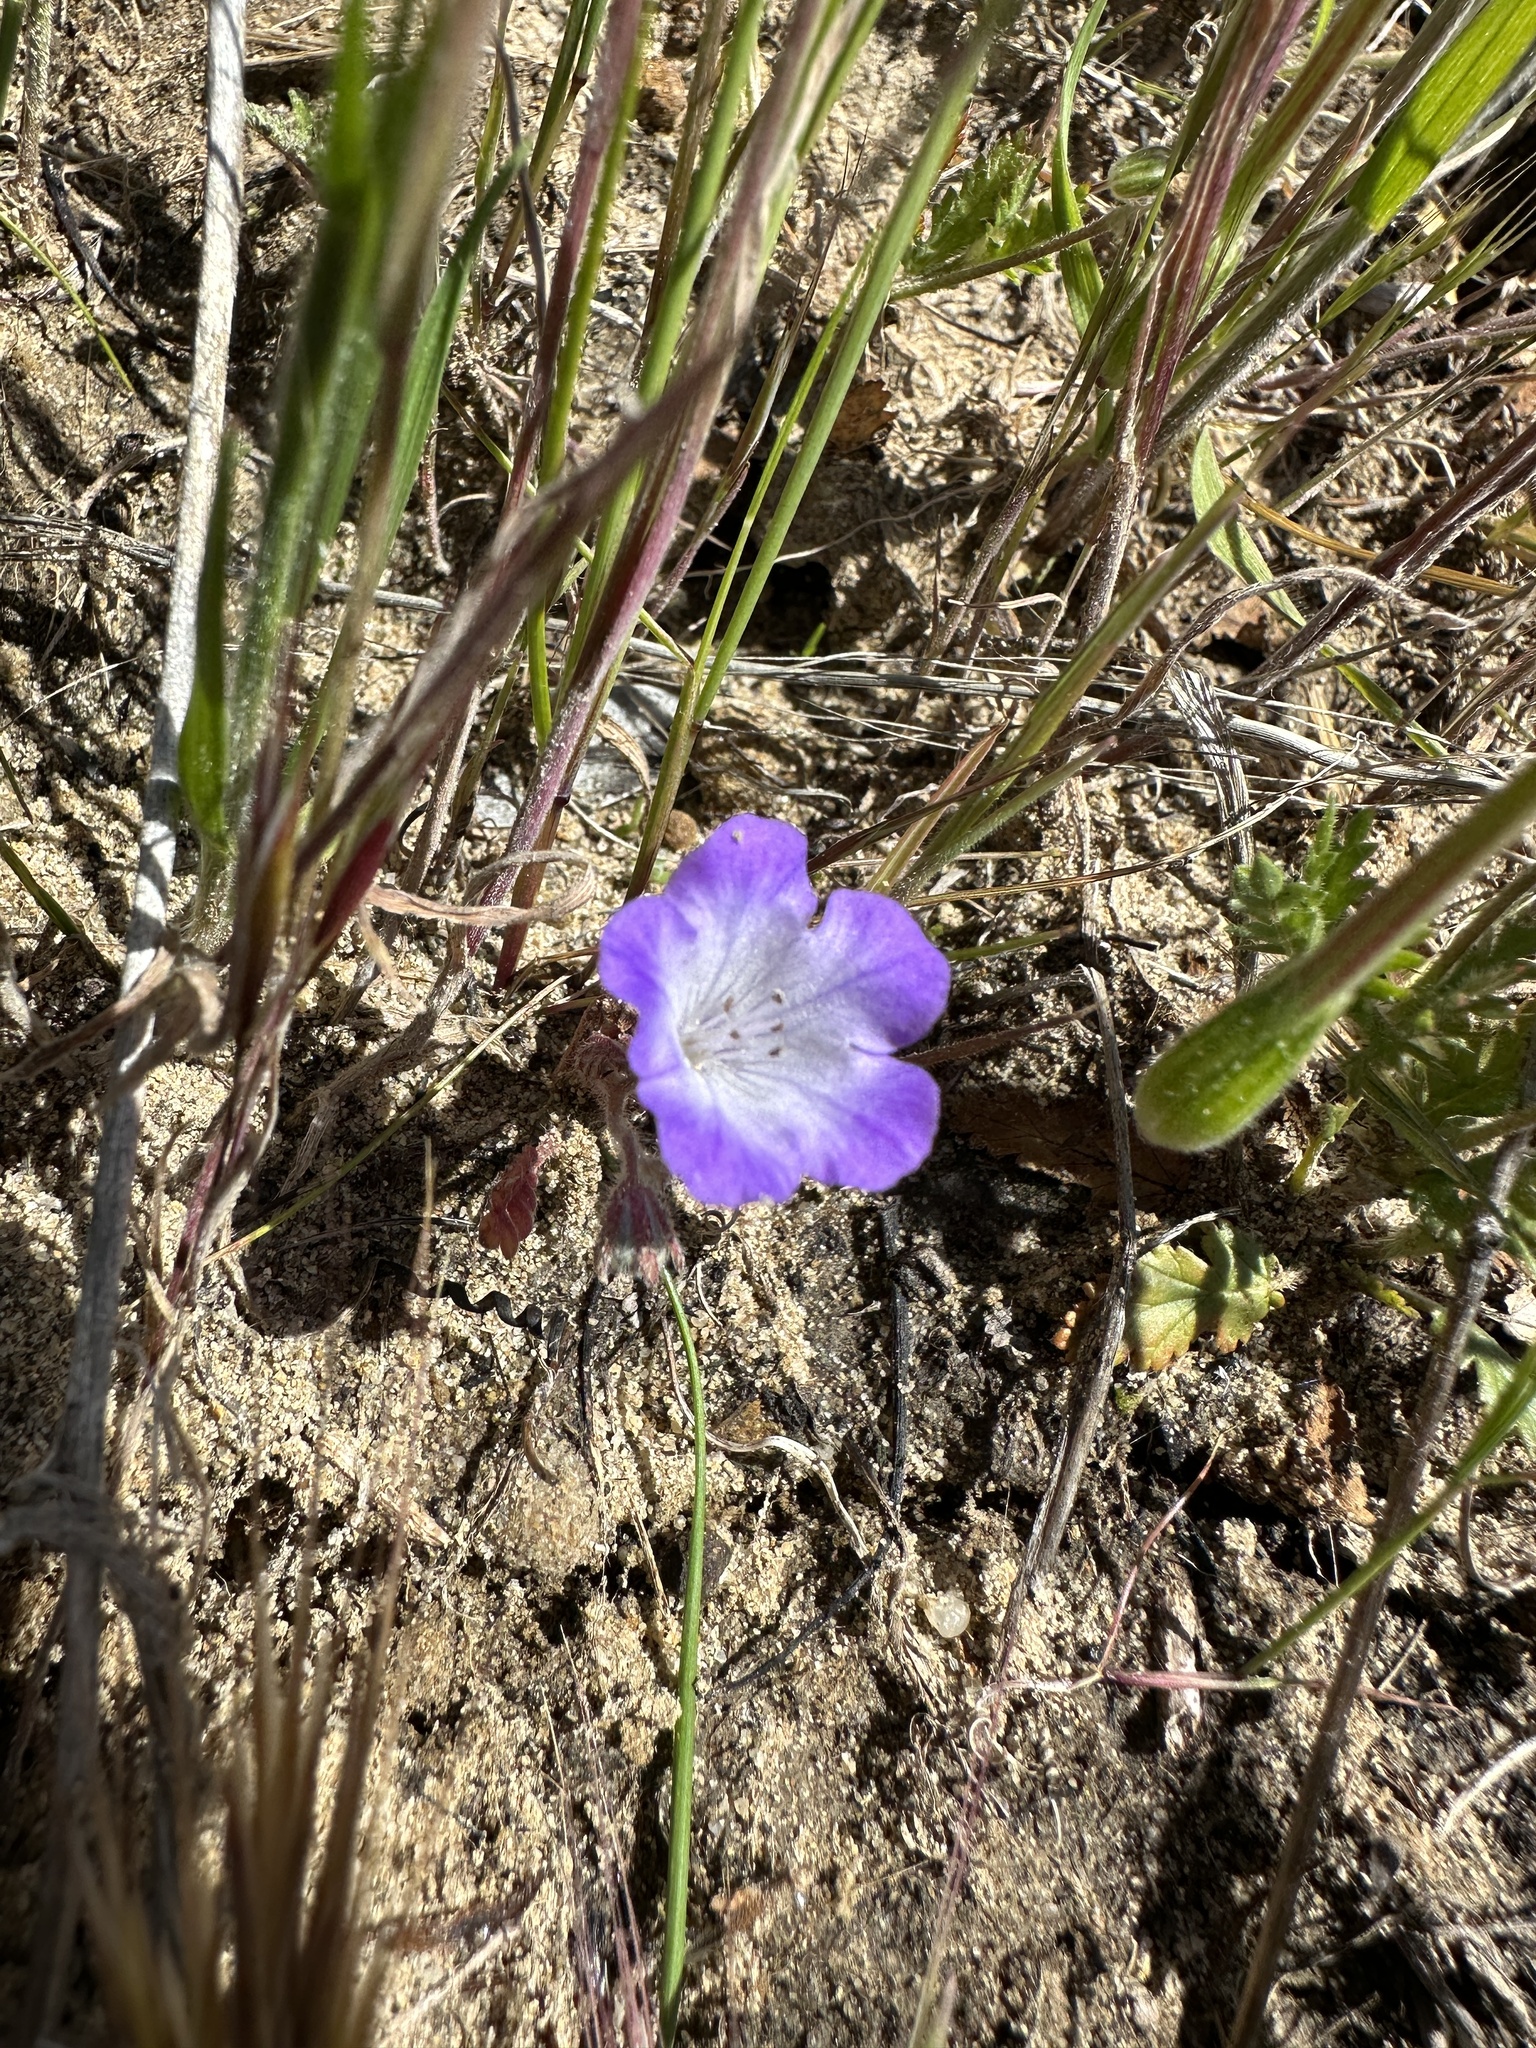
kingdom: Plantae
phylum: Tracheophyta
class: Magnoliopsida
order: Boraginales
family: Hydrophyllaceae
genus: Phacelia
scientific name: Phacelia douglasii
